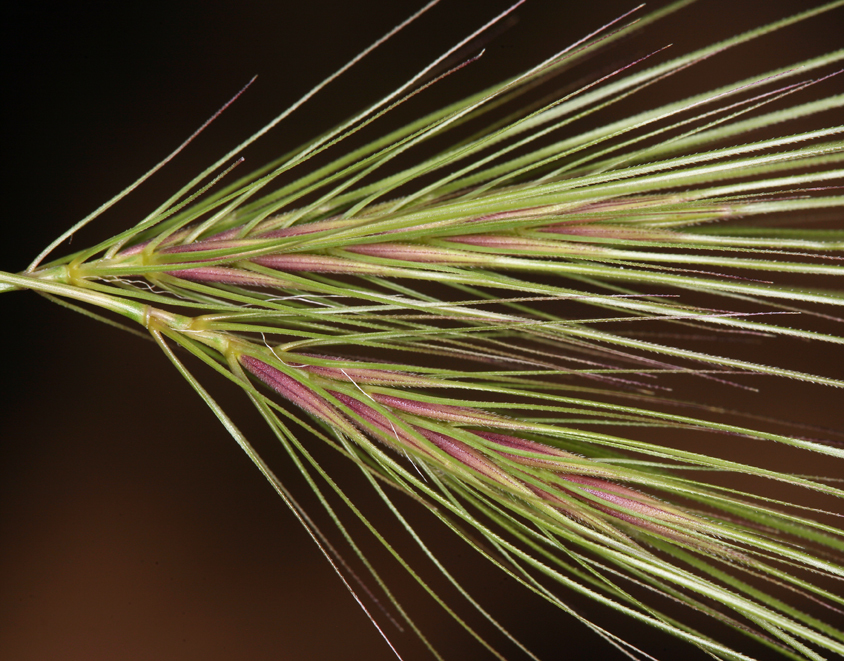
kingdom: Plantae
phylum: Tracheophyta
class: Liliopsida
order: Poales
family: Poaceae
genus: Taeniatherum
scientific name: Taeniatherum caput-medusae
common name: Medusahead
